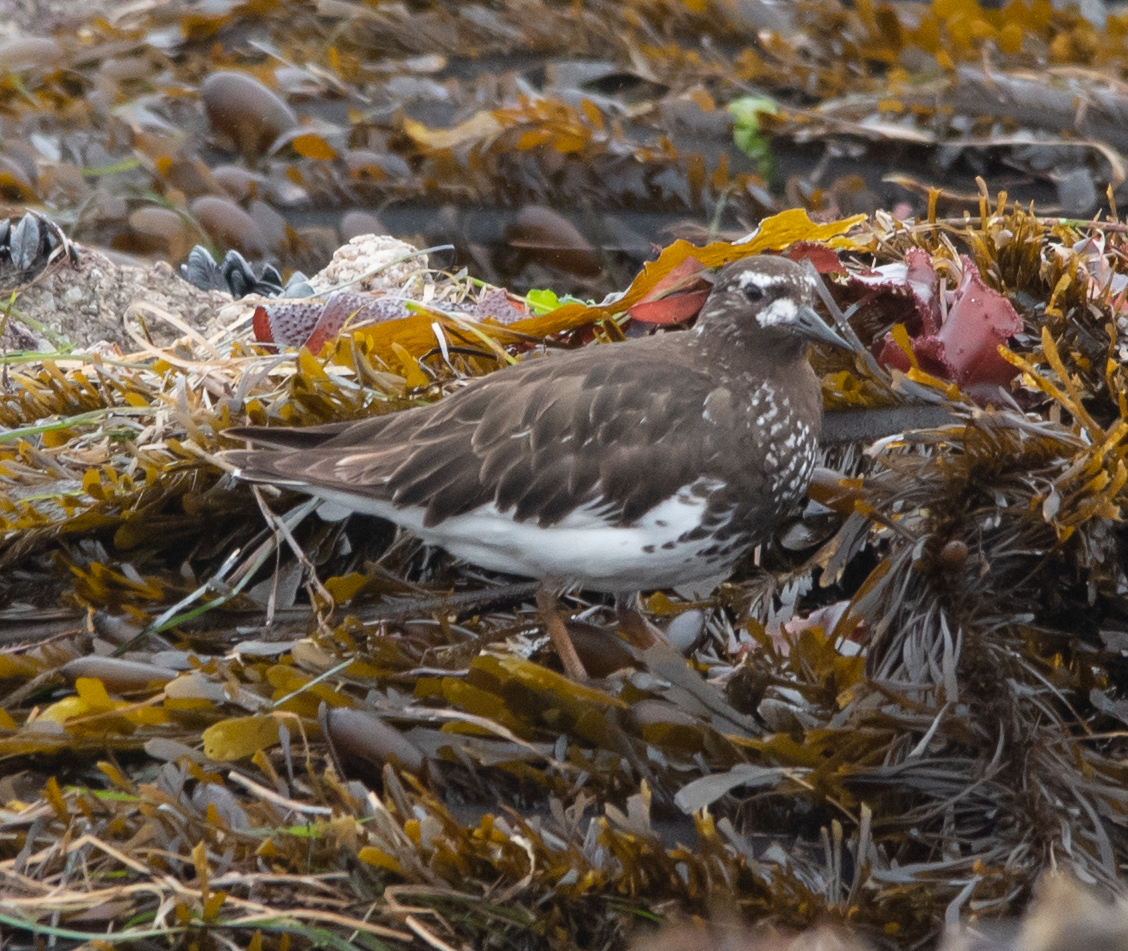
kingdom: Animalia
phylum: Chordata
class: Aves
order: Charadriiformes
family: Scolopacidae
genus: Arenaria
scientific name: Arenaria melanocephala
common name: Black turnstone
